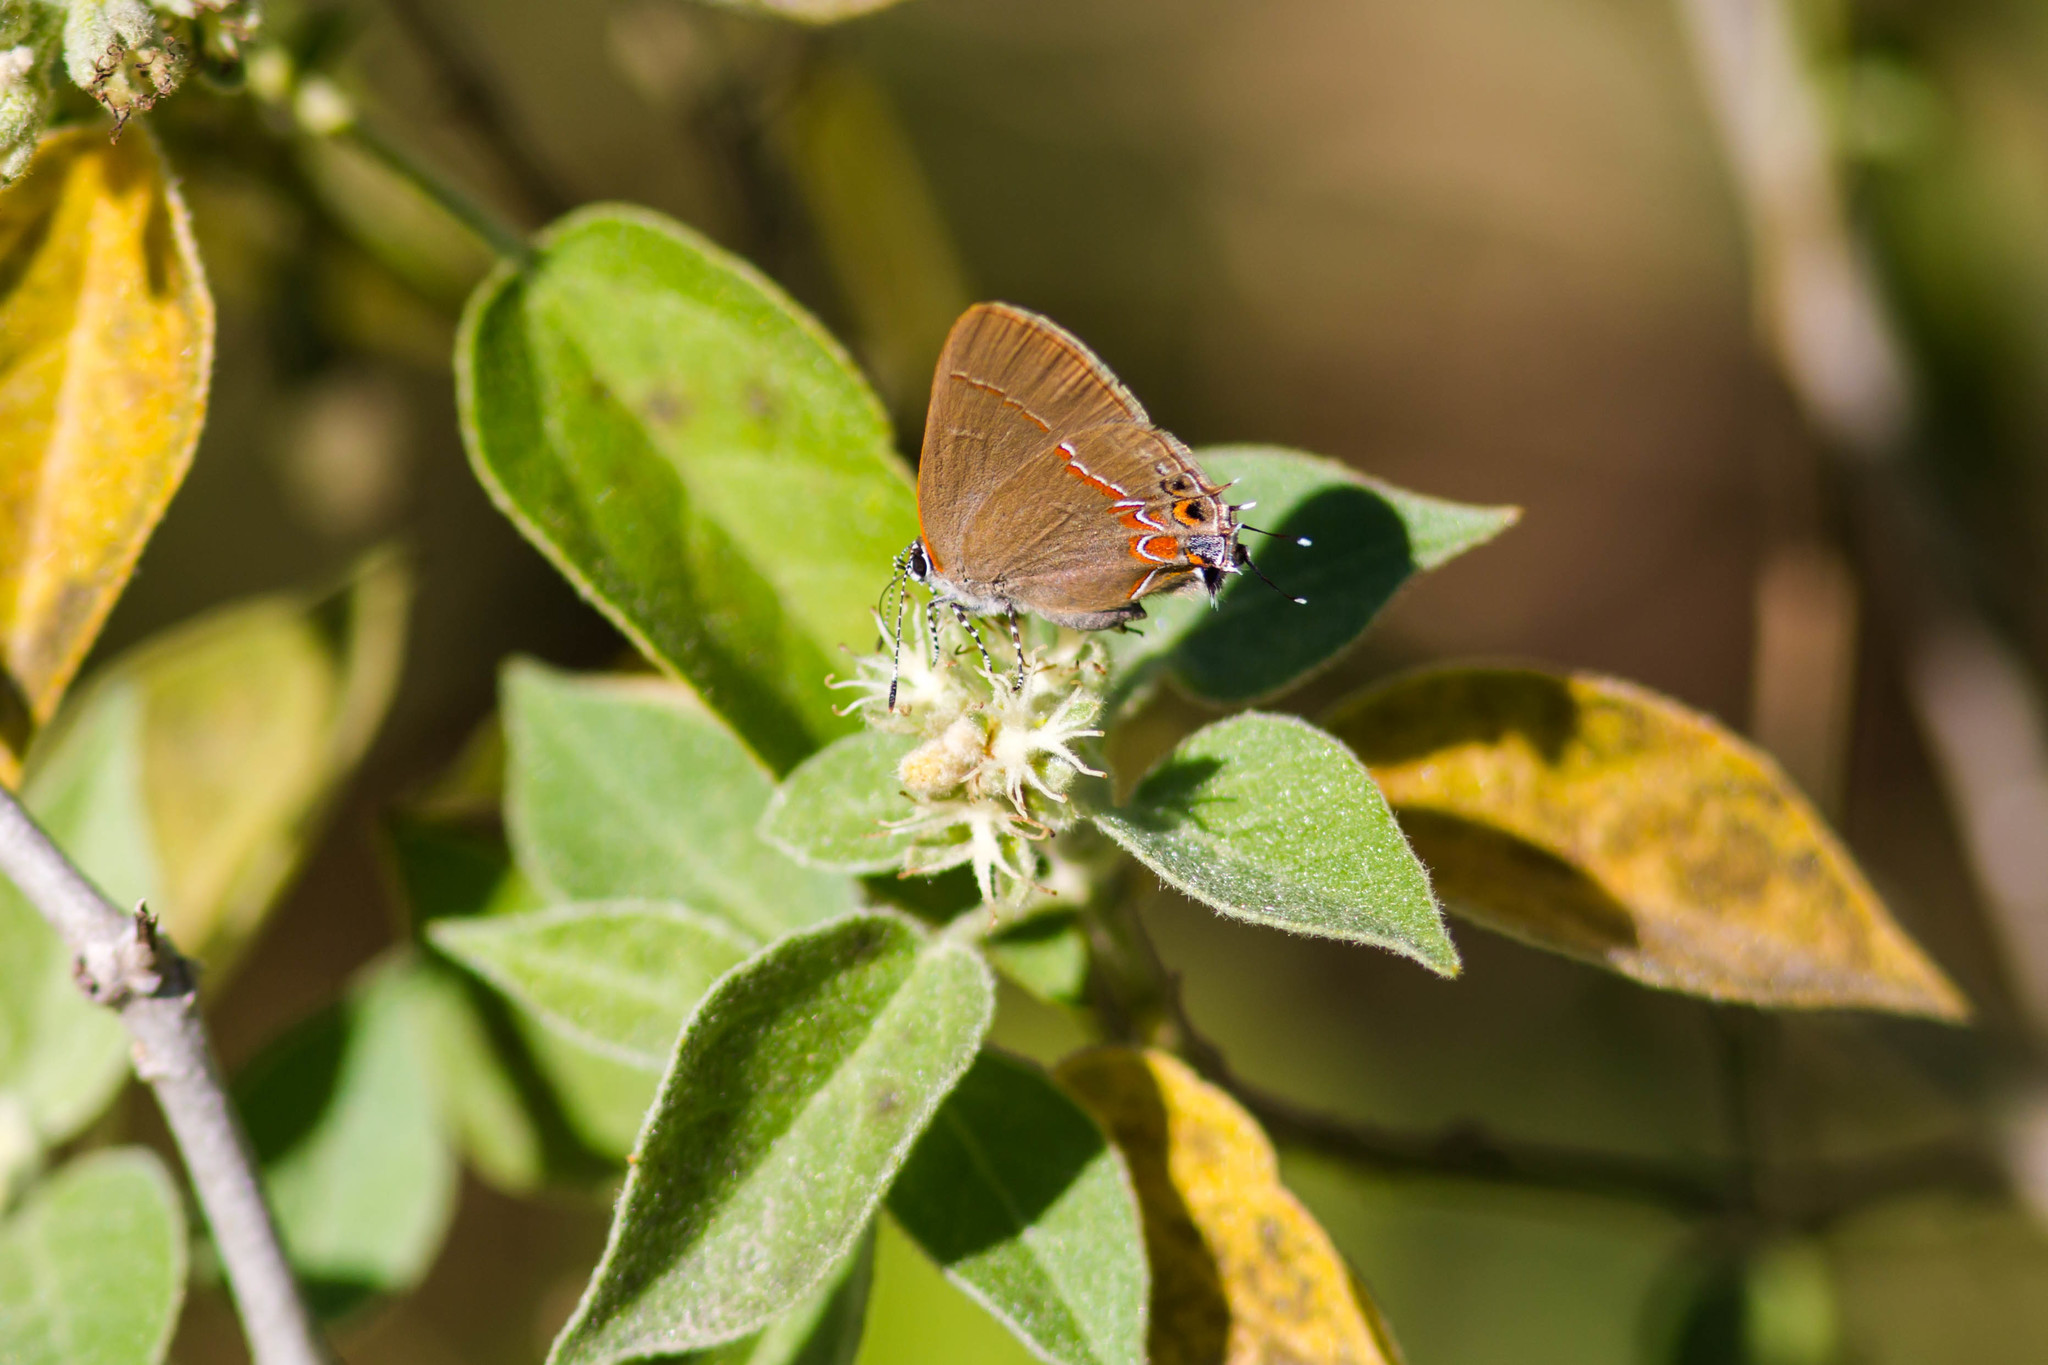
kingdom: Animalia
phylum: Arthropoda
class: Insecta
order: Lepidoptera
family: Lycaenidae
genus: Calycopis
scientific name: Calycopis isobeon
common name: Dusky-blue groundstreak
